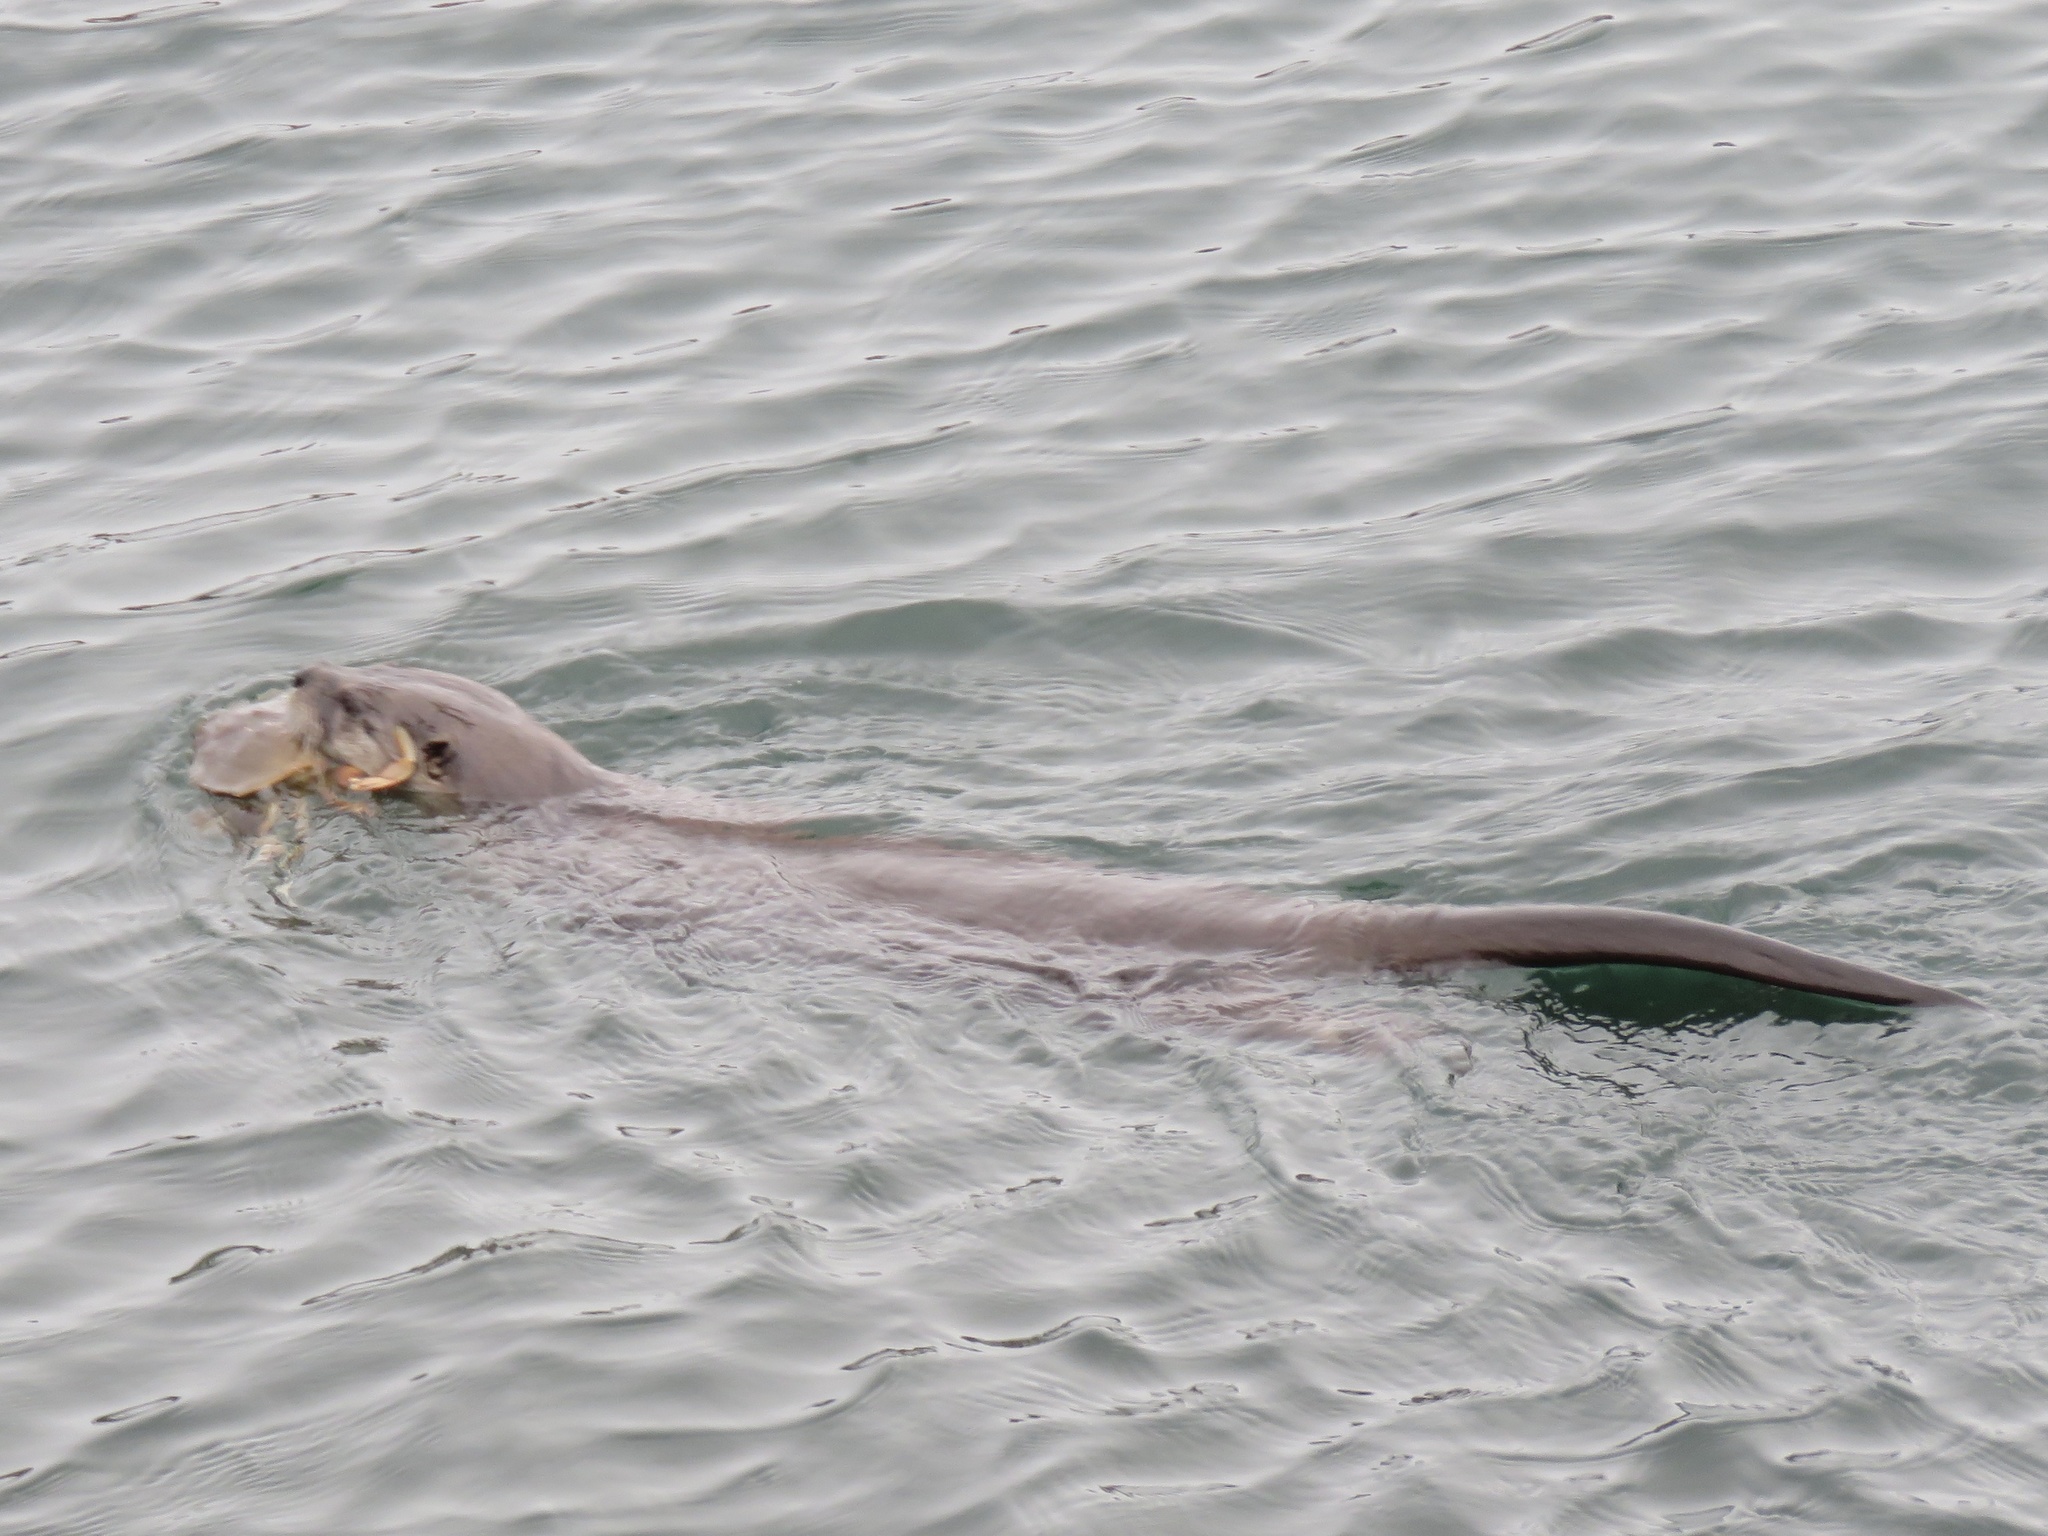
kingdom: Animalia
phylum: Chordata
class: Mammalia
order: Carnivora
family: Mustelidae
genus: Lontra
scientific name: Lontra canadensis
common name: North american river otter
